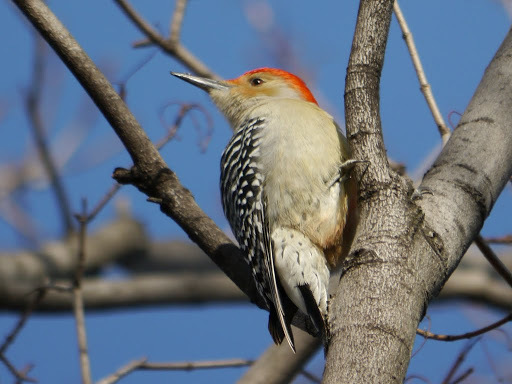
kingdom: Animalia
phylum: Chordata
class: Aves
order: Piciformes
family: Picidae
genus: Melanerpes
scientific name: Melanerpes carolinus
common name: Red-bellied woodpecker
